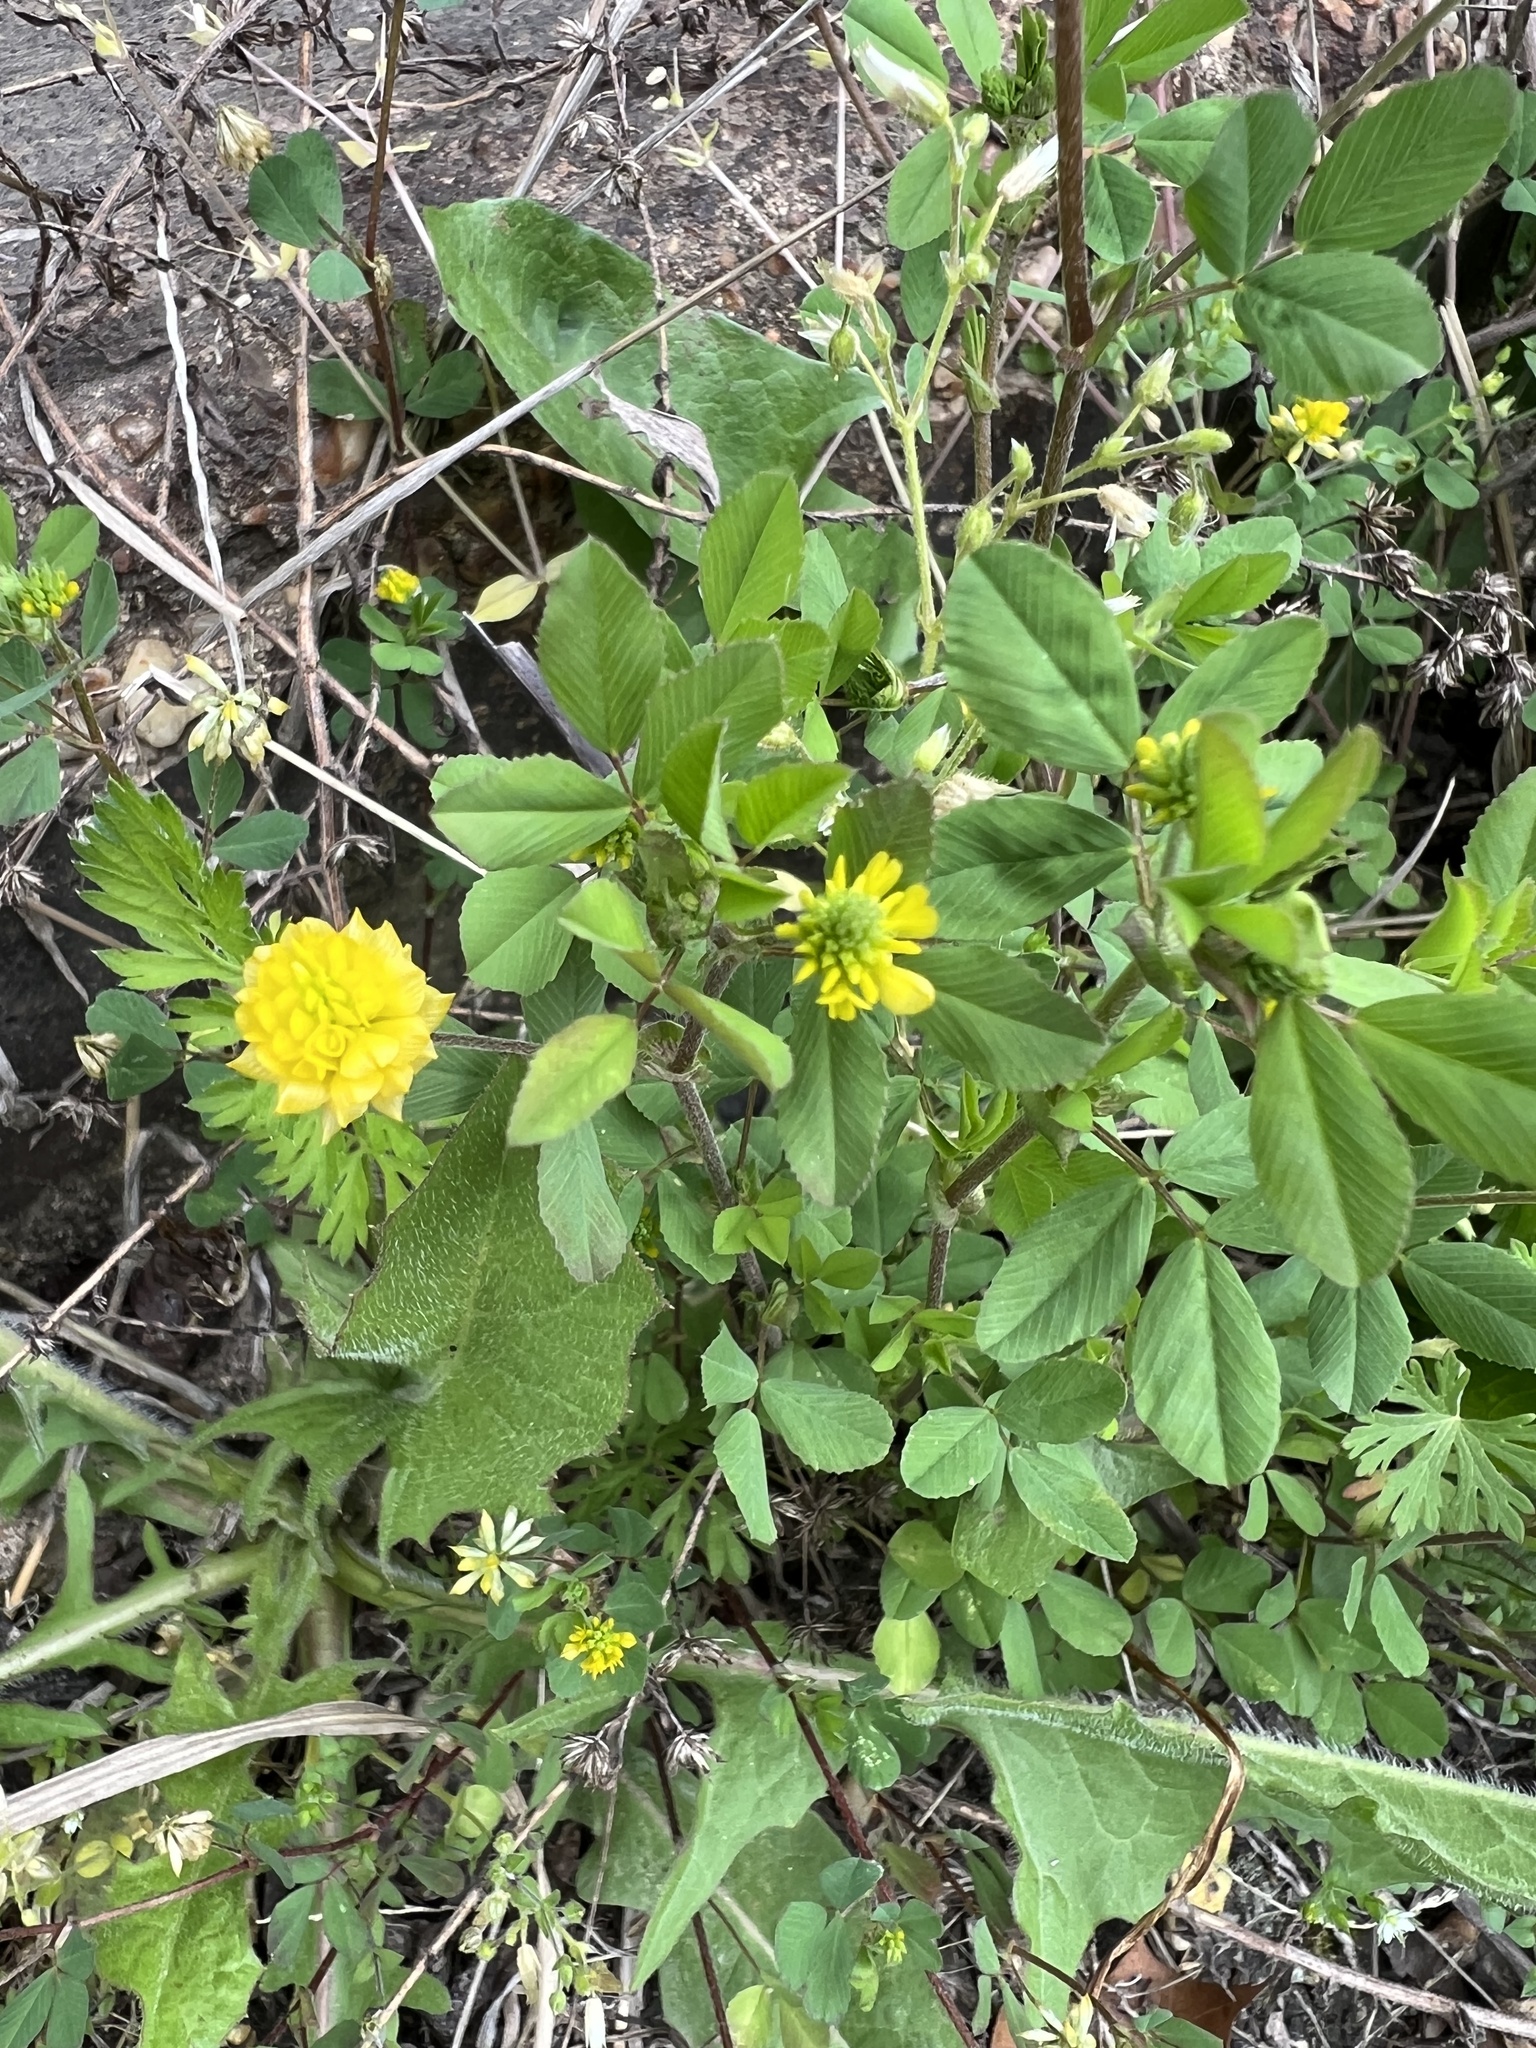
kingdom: Plantae
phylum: Tracheophyta
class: Magnoliopsida
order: Fabales
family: Fabaceae
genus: Trifolium
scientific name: Trifolium campestre
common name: Field clover
